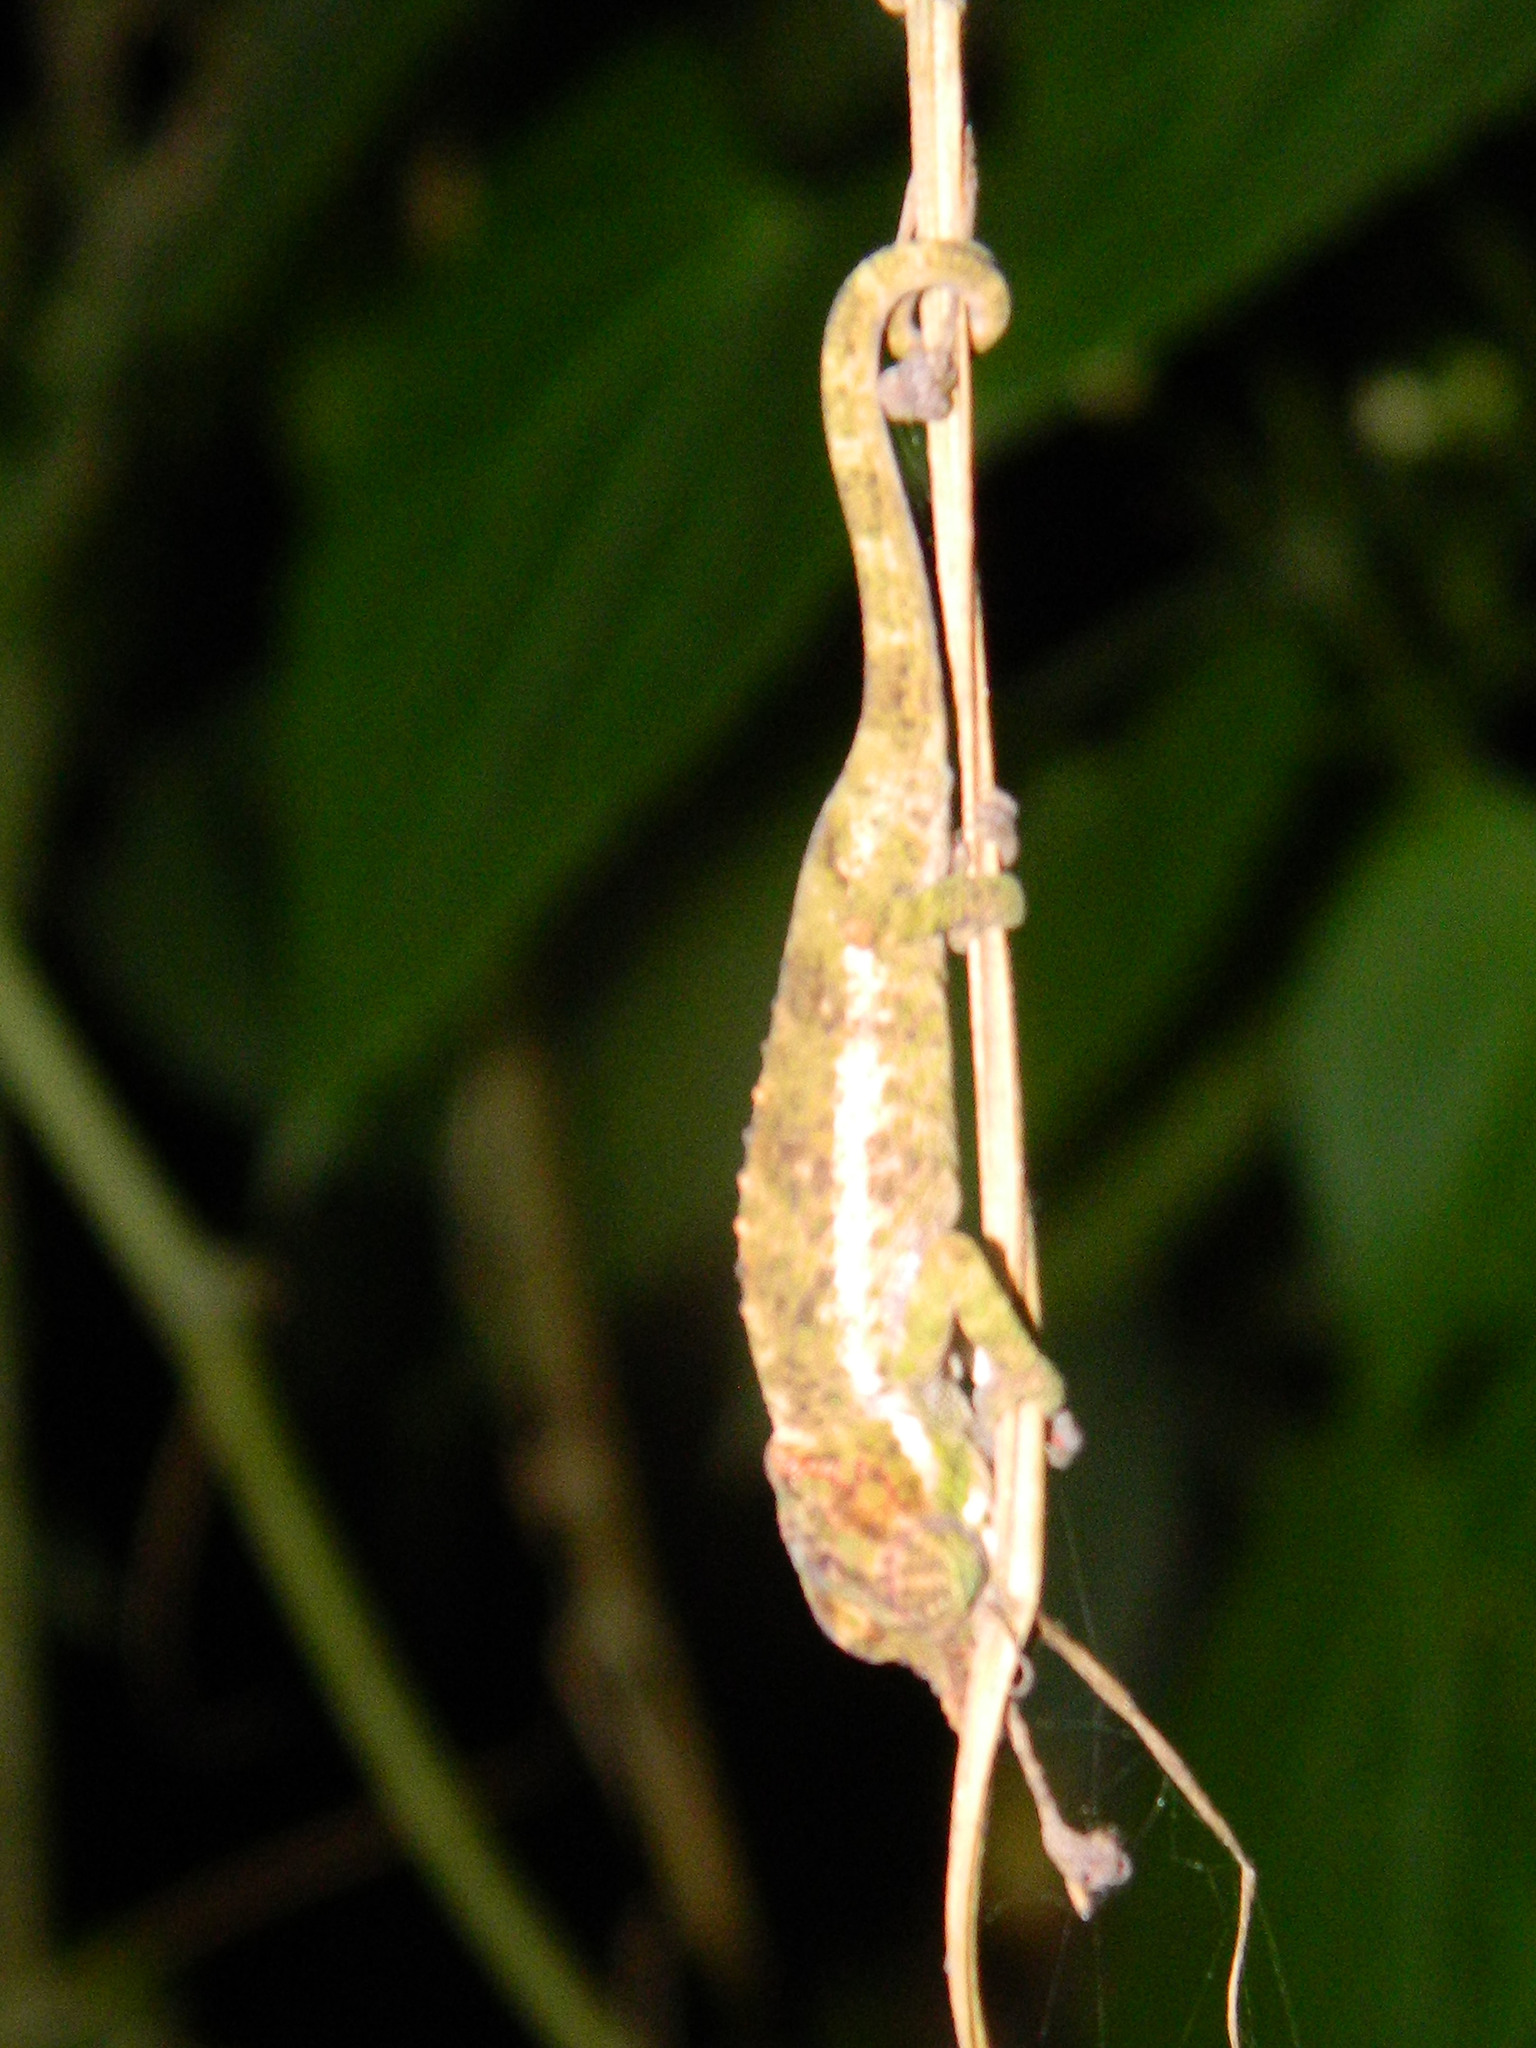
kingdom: Animalia
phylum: Chordata
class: Squamata
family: Chamaeleonidae
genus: Calumma
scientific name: Calumma fallax
